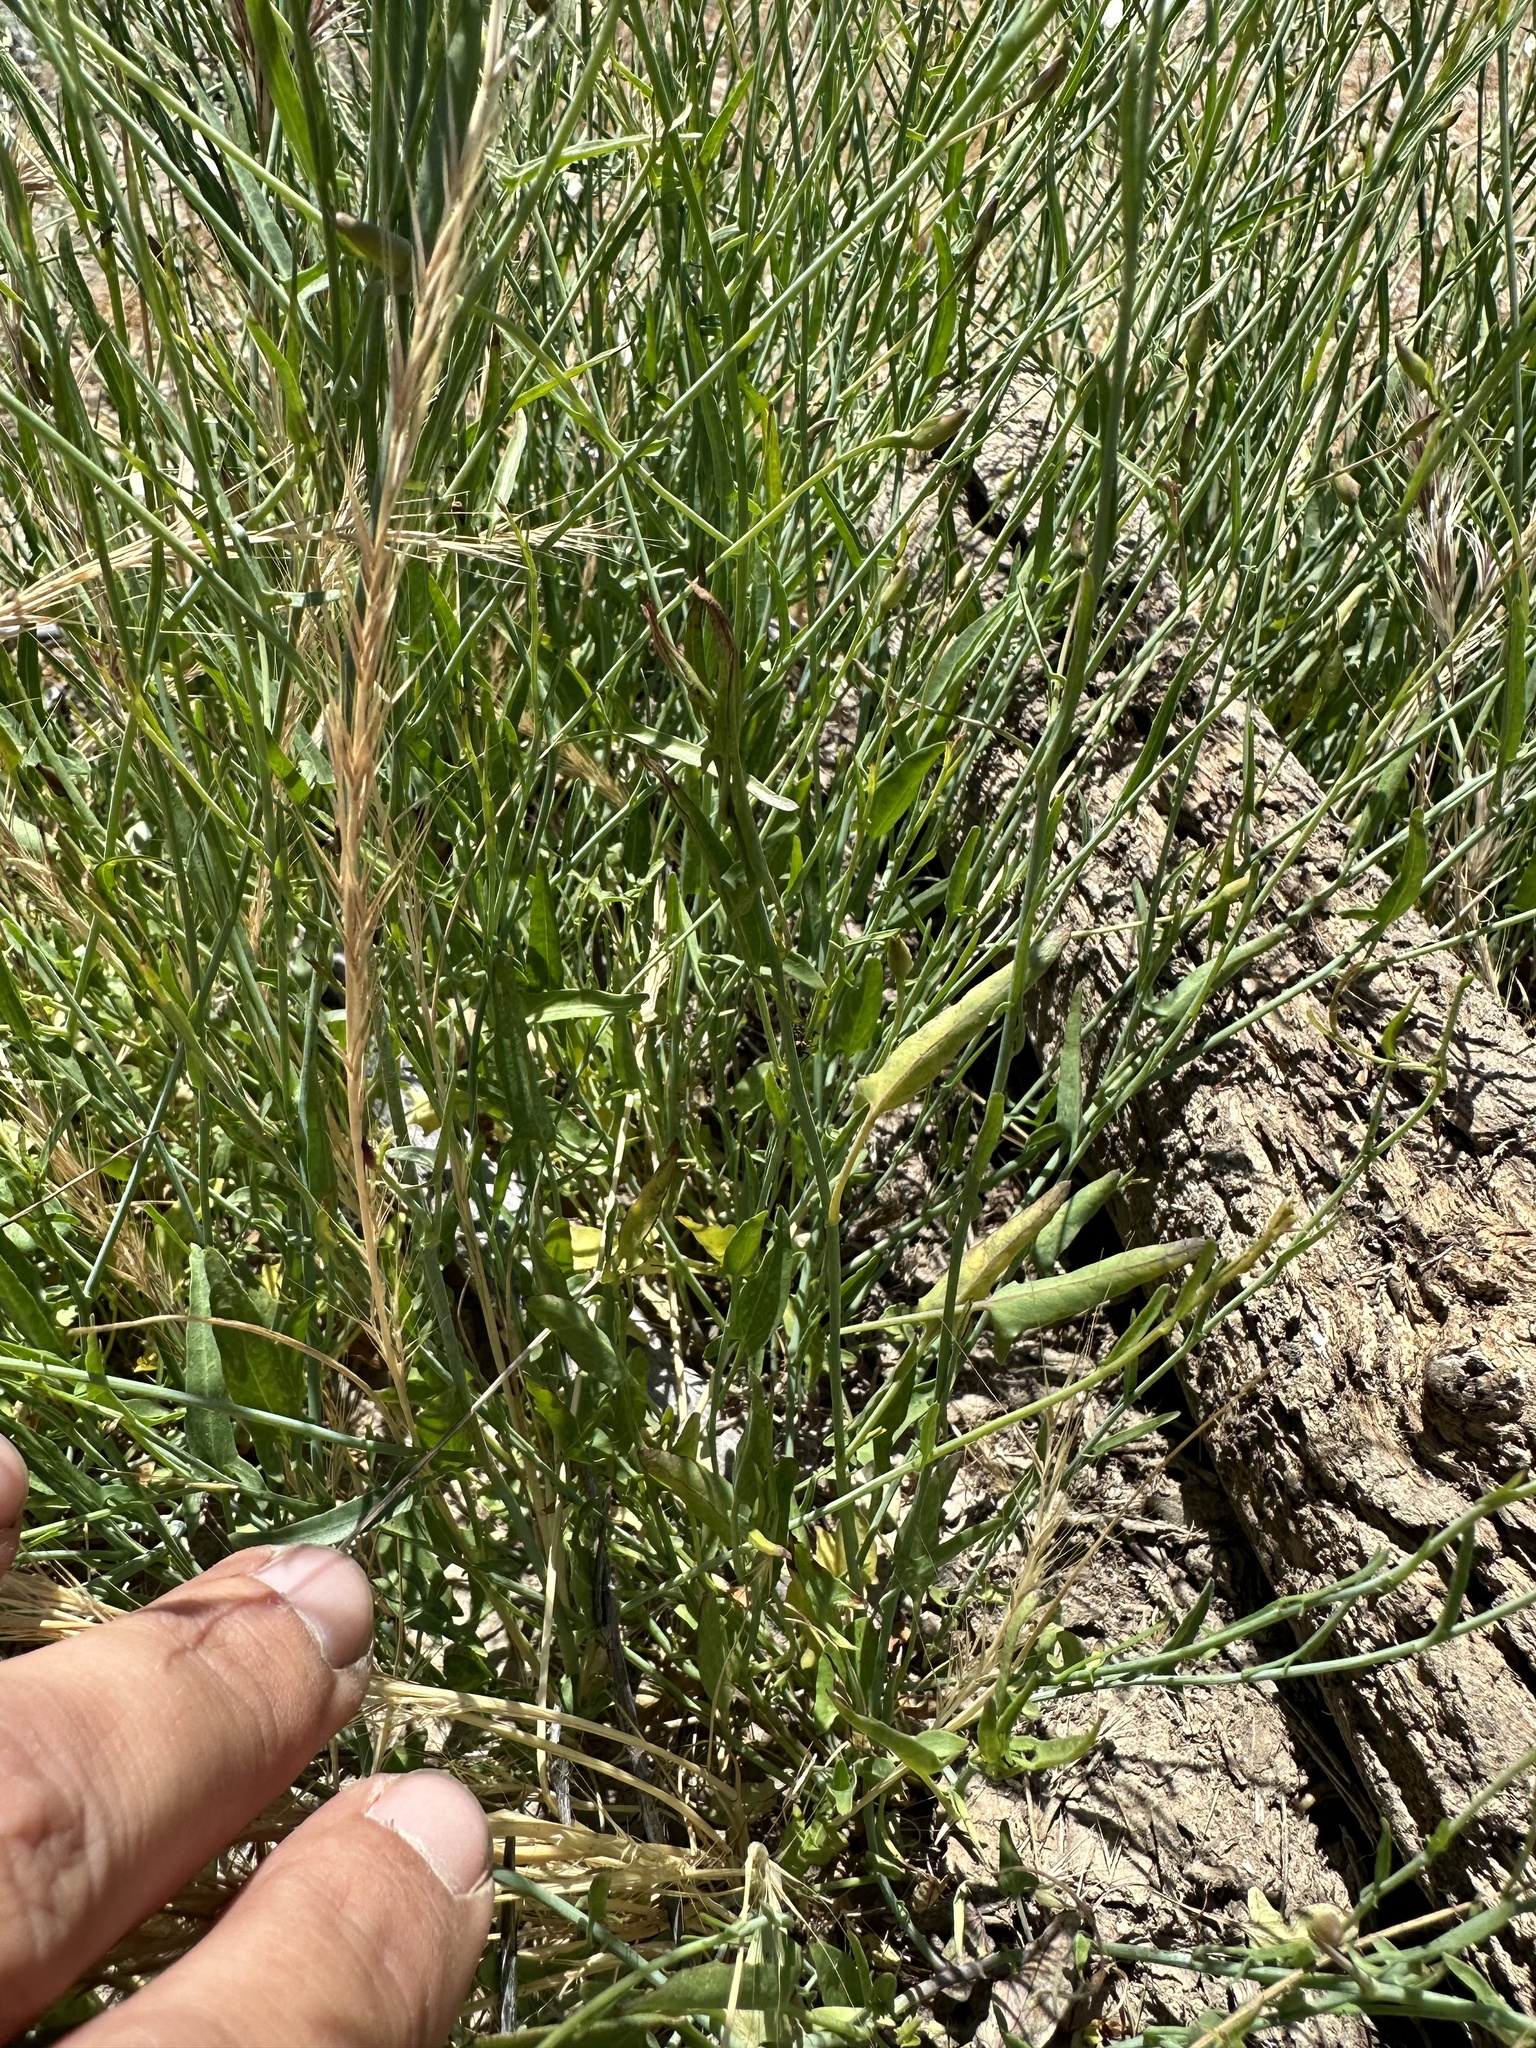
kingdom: Plantae
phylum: Tracheophyta
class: Magnoliopsida
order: Solanales
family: Convolvulaceae
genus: Calystegia
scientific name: Calystegia longipes
